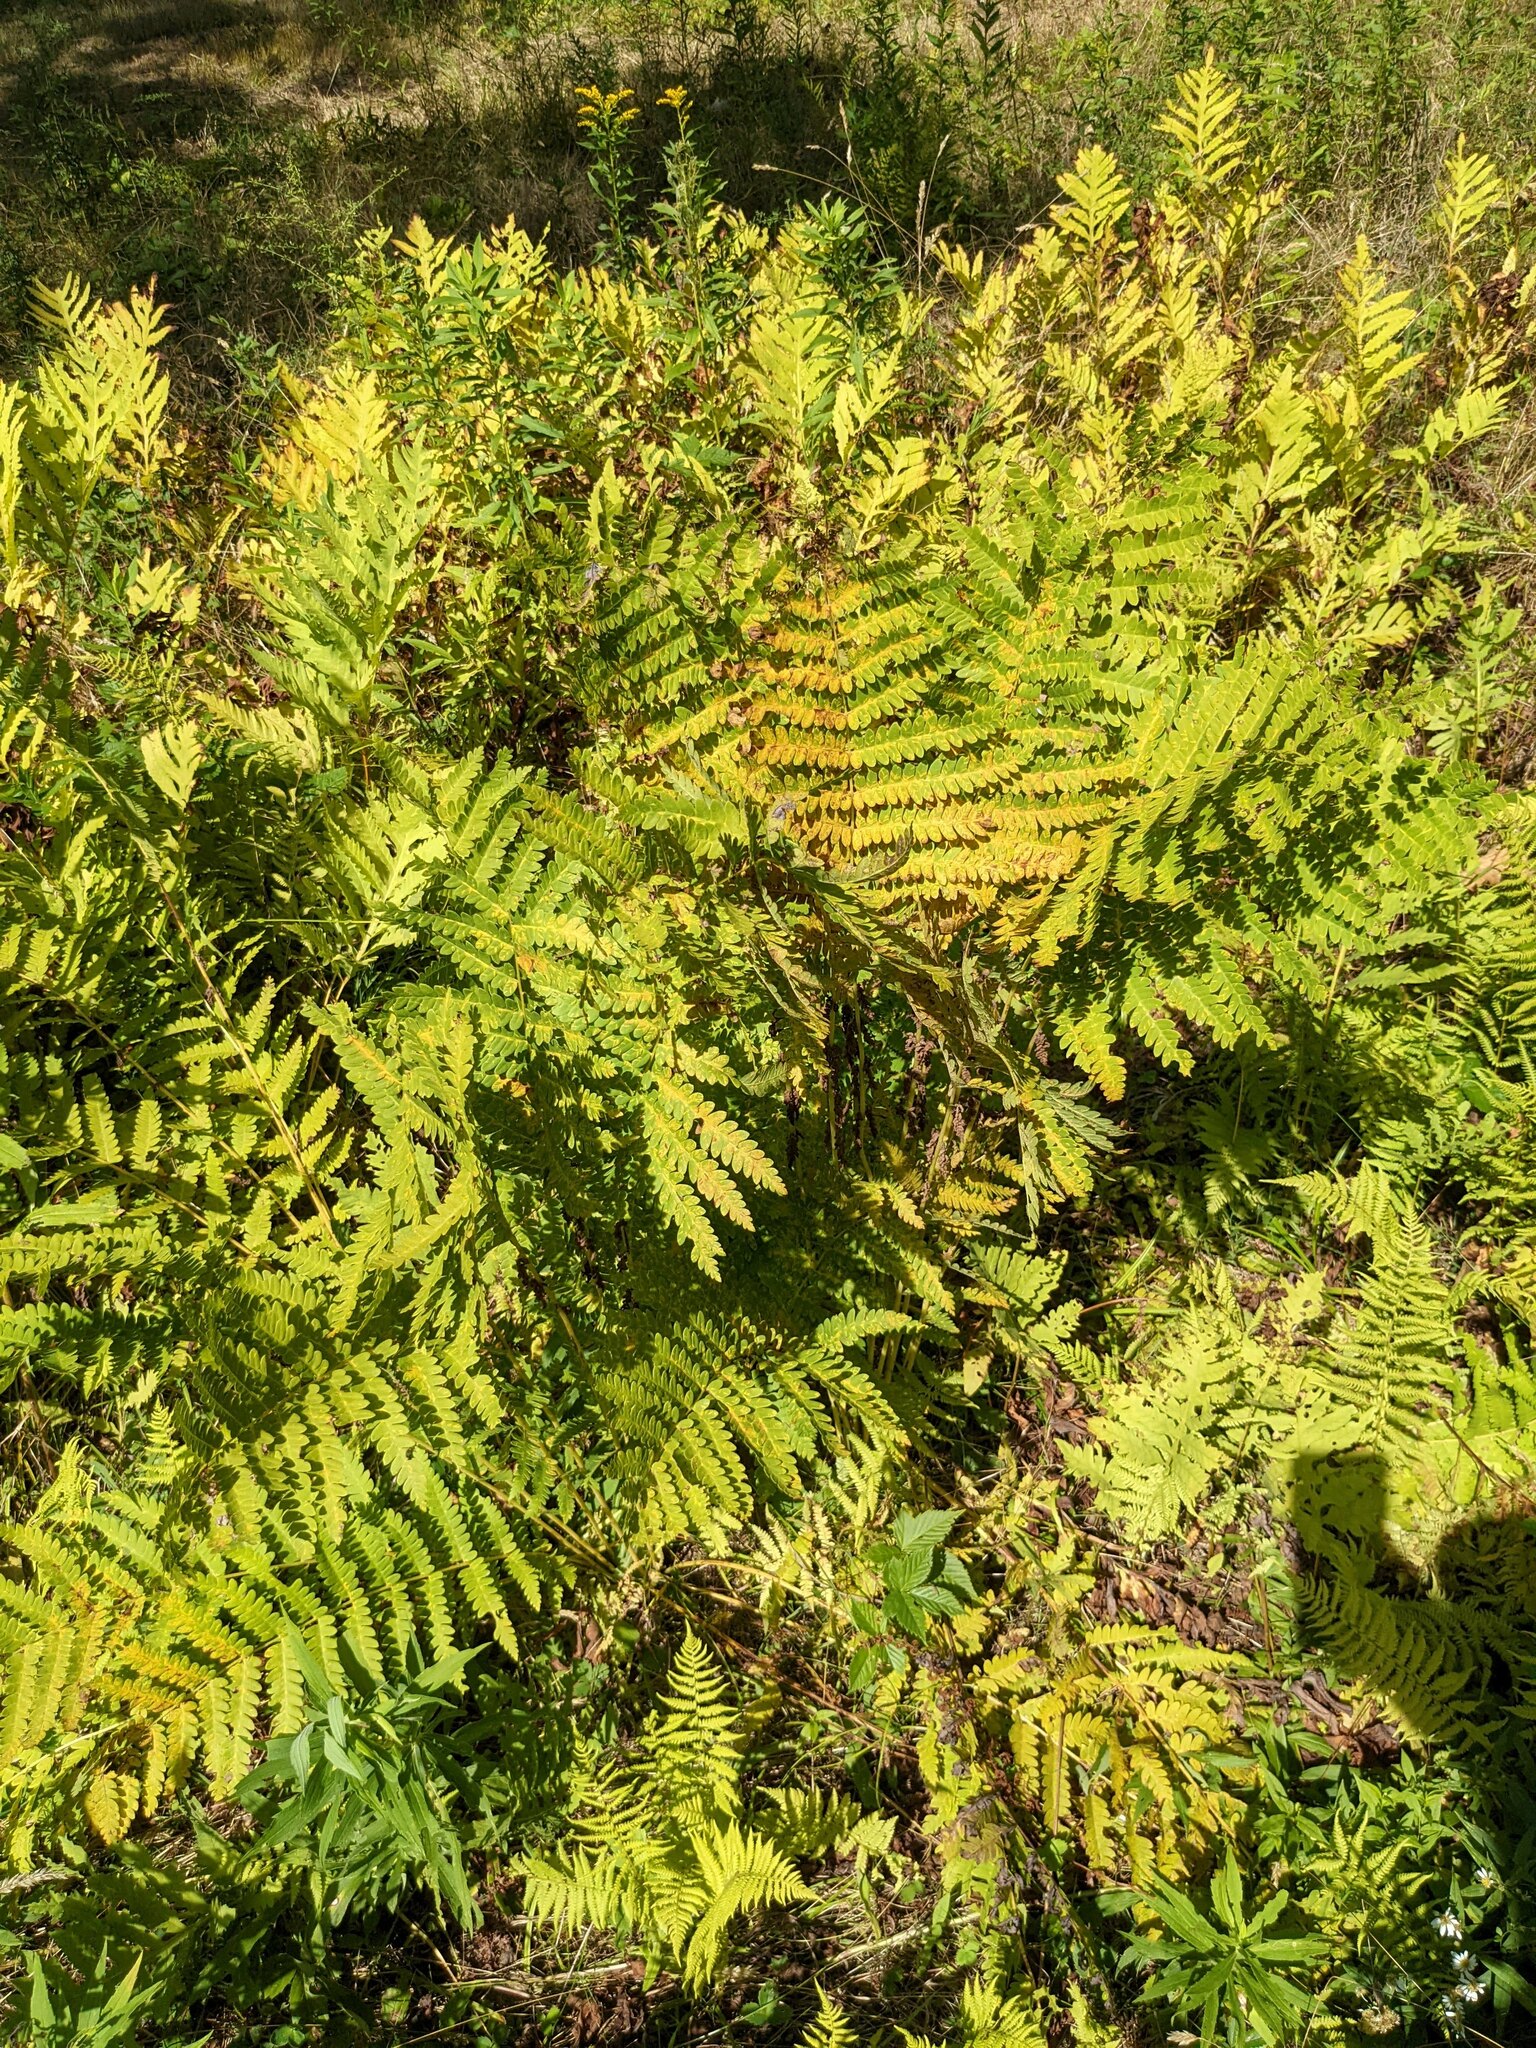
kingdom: Plantae
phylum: Tracheophyta
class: Polypodiopsida
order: Osmundales
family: Osmundaceae
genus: Osmundastrum
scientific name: Osmundastrum cinnamomeum
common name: Cinnamon fern
